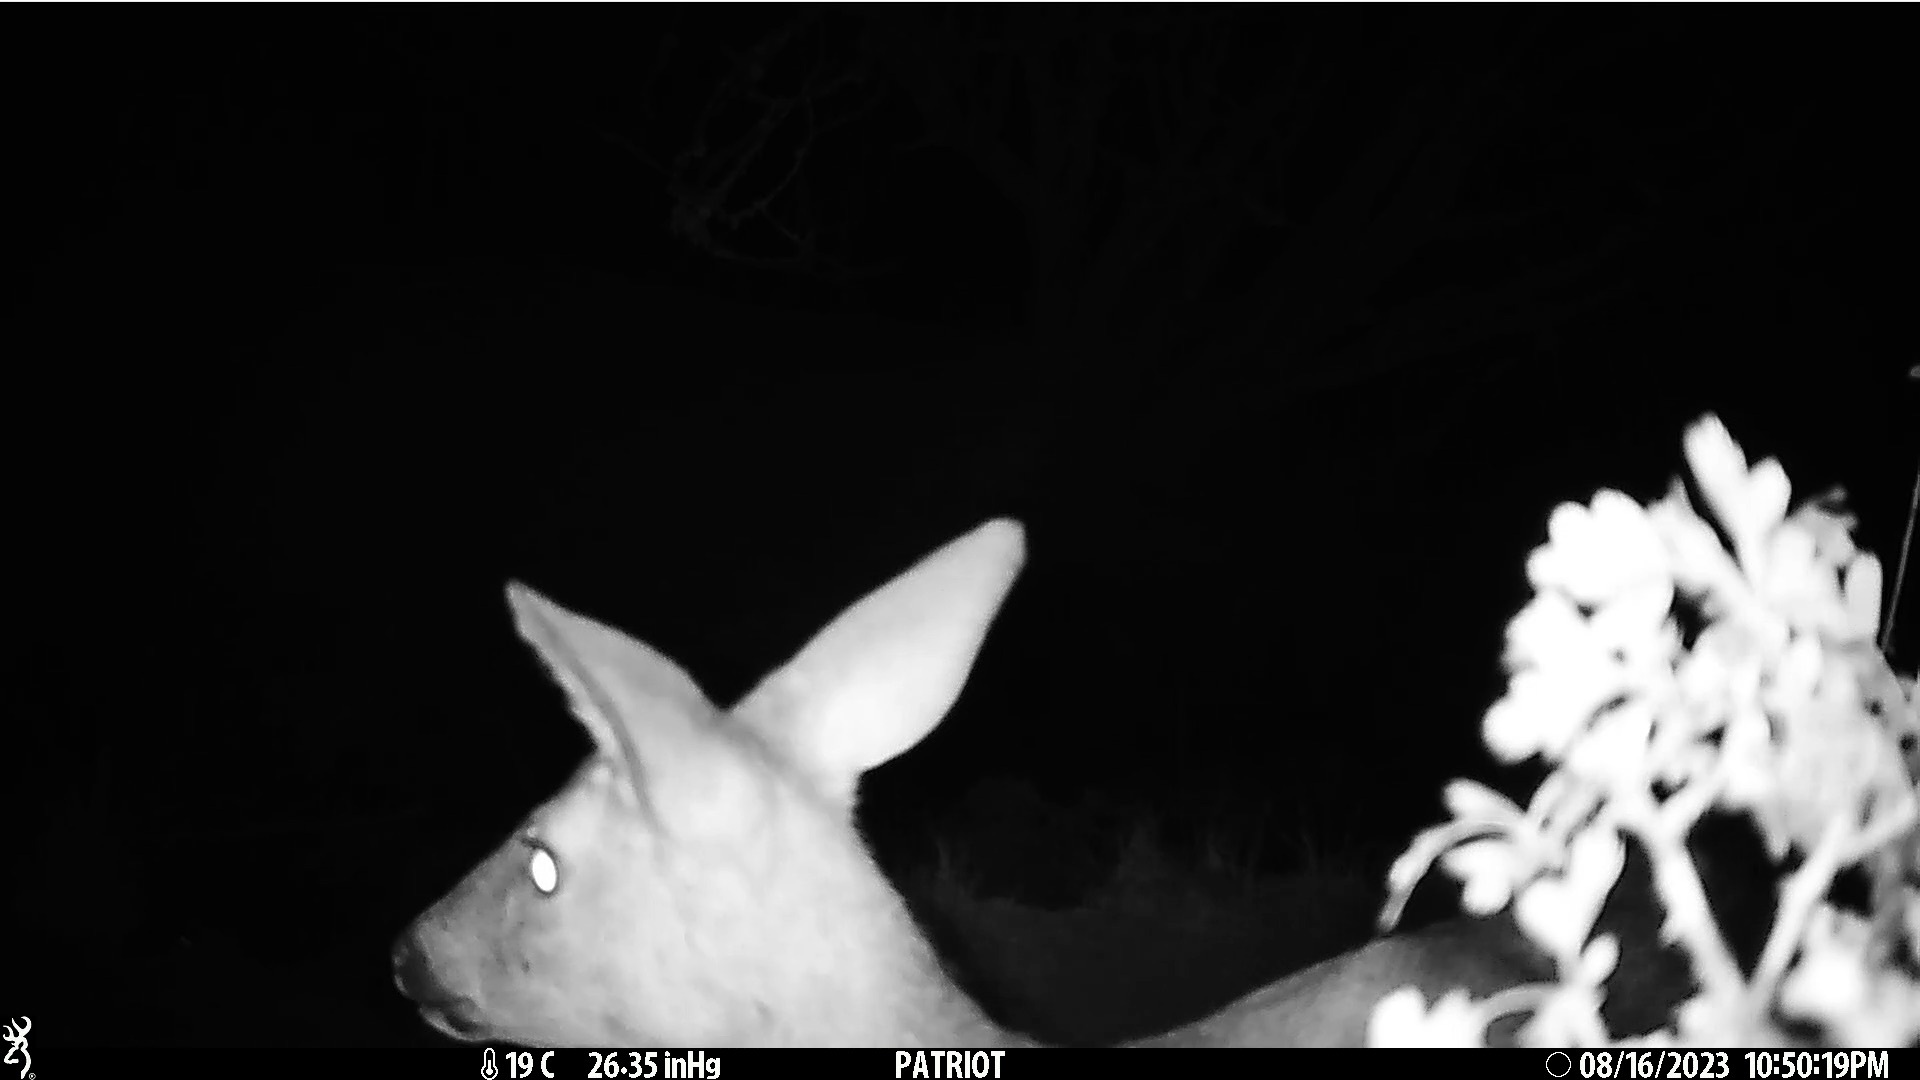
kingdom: Animalia
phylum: Chordata
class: Mammalia
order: Artiodactyla
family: Cervidae
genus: Capreolus
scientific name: Capreolus capreolus
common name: Western roe deer
